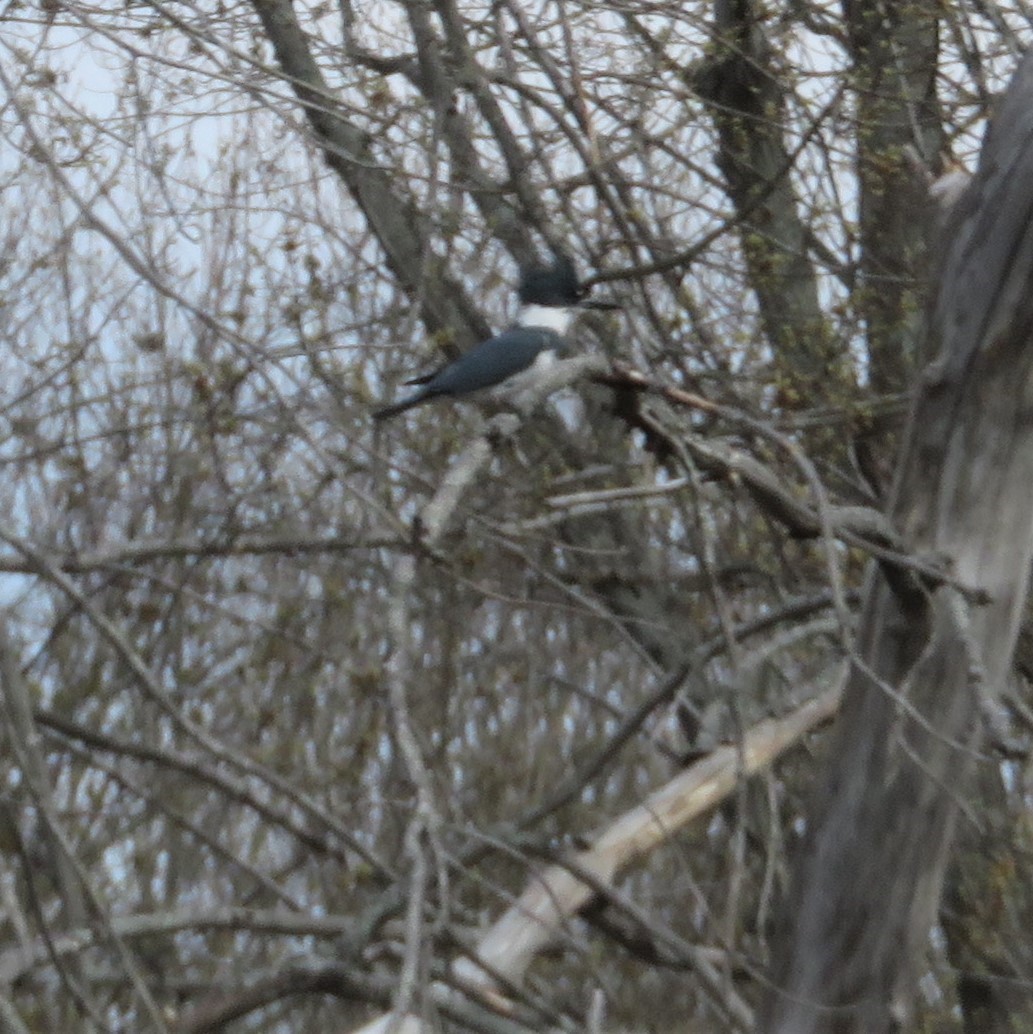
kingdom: Animalia
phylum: Chordata
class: Aves
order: Coraciiformes
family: Alcedinidae
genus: Megaceryle
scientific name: Megaceryle alcyon
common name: Belted kingfisher
